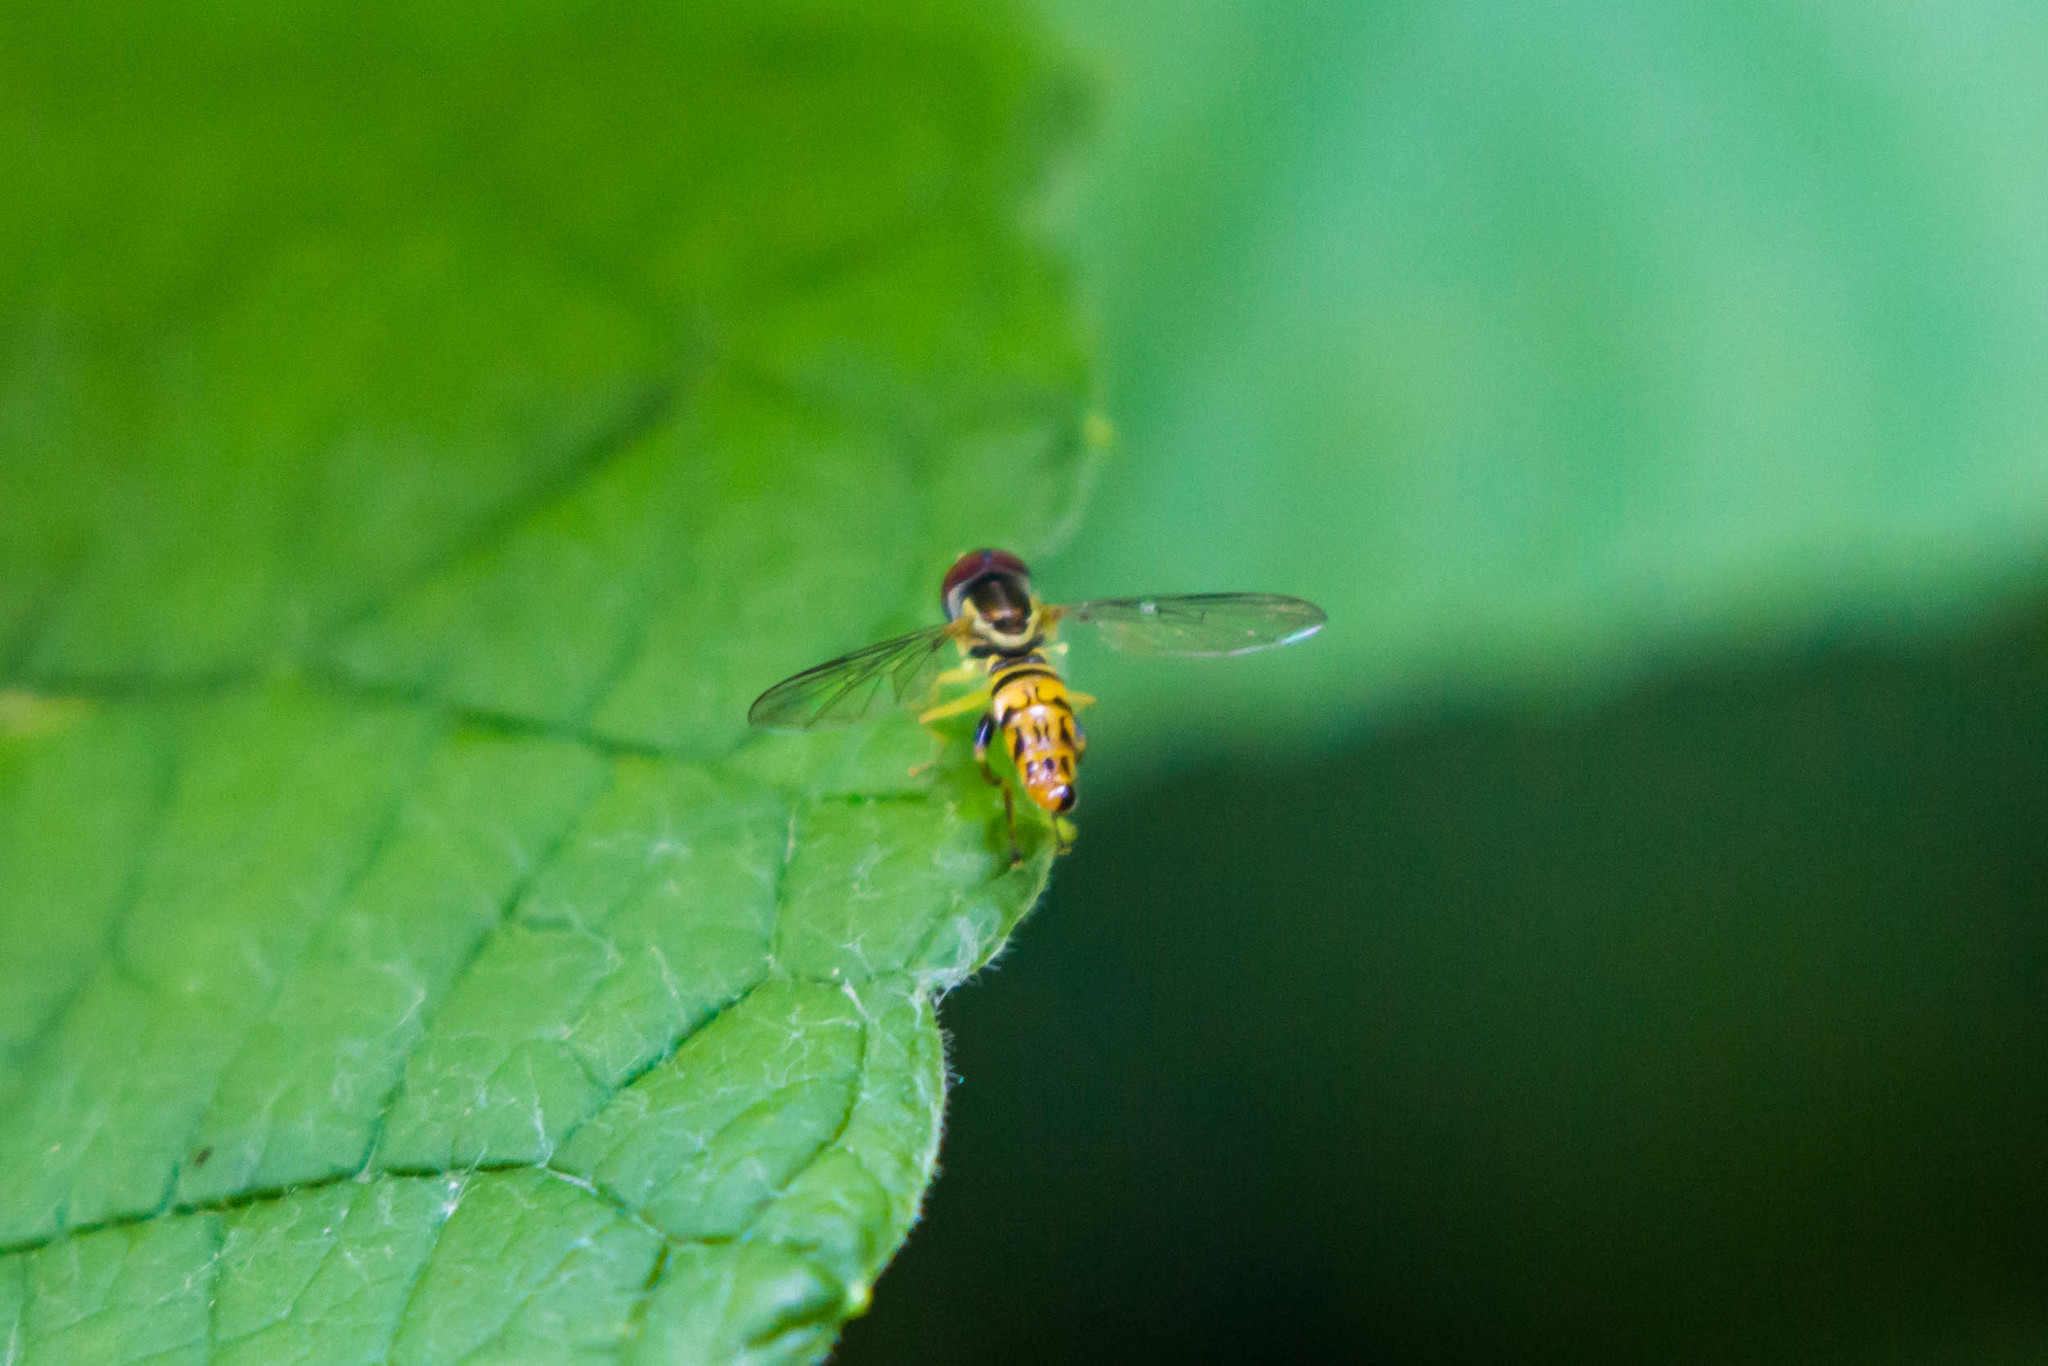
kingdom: Animalia
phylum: Arthropoda
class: Insecta
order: Diptera
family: Syrphidae
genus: Toxomerus
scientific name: Toxomerus boscii
